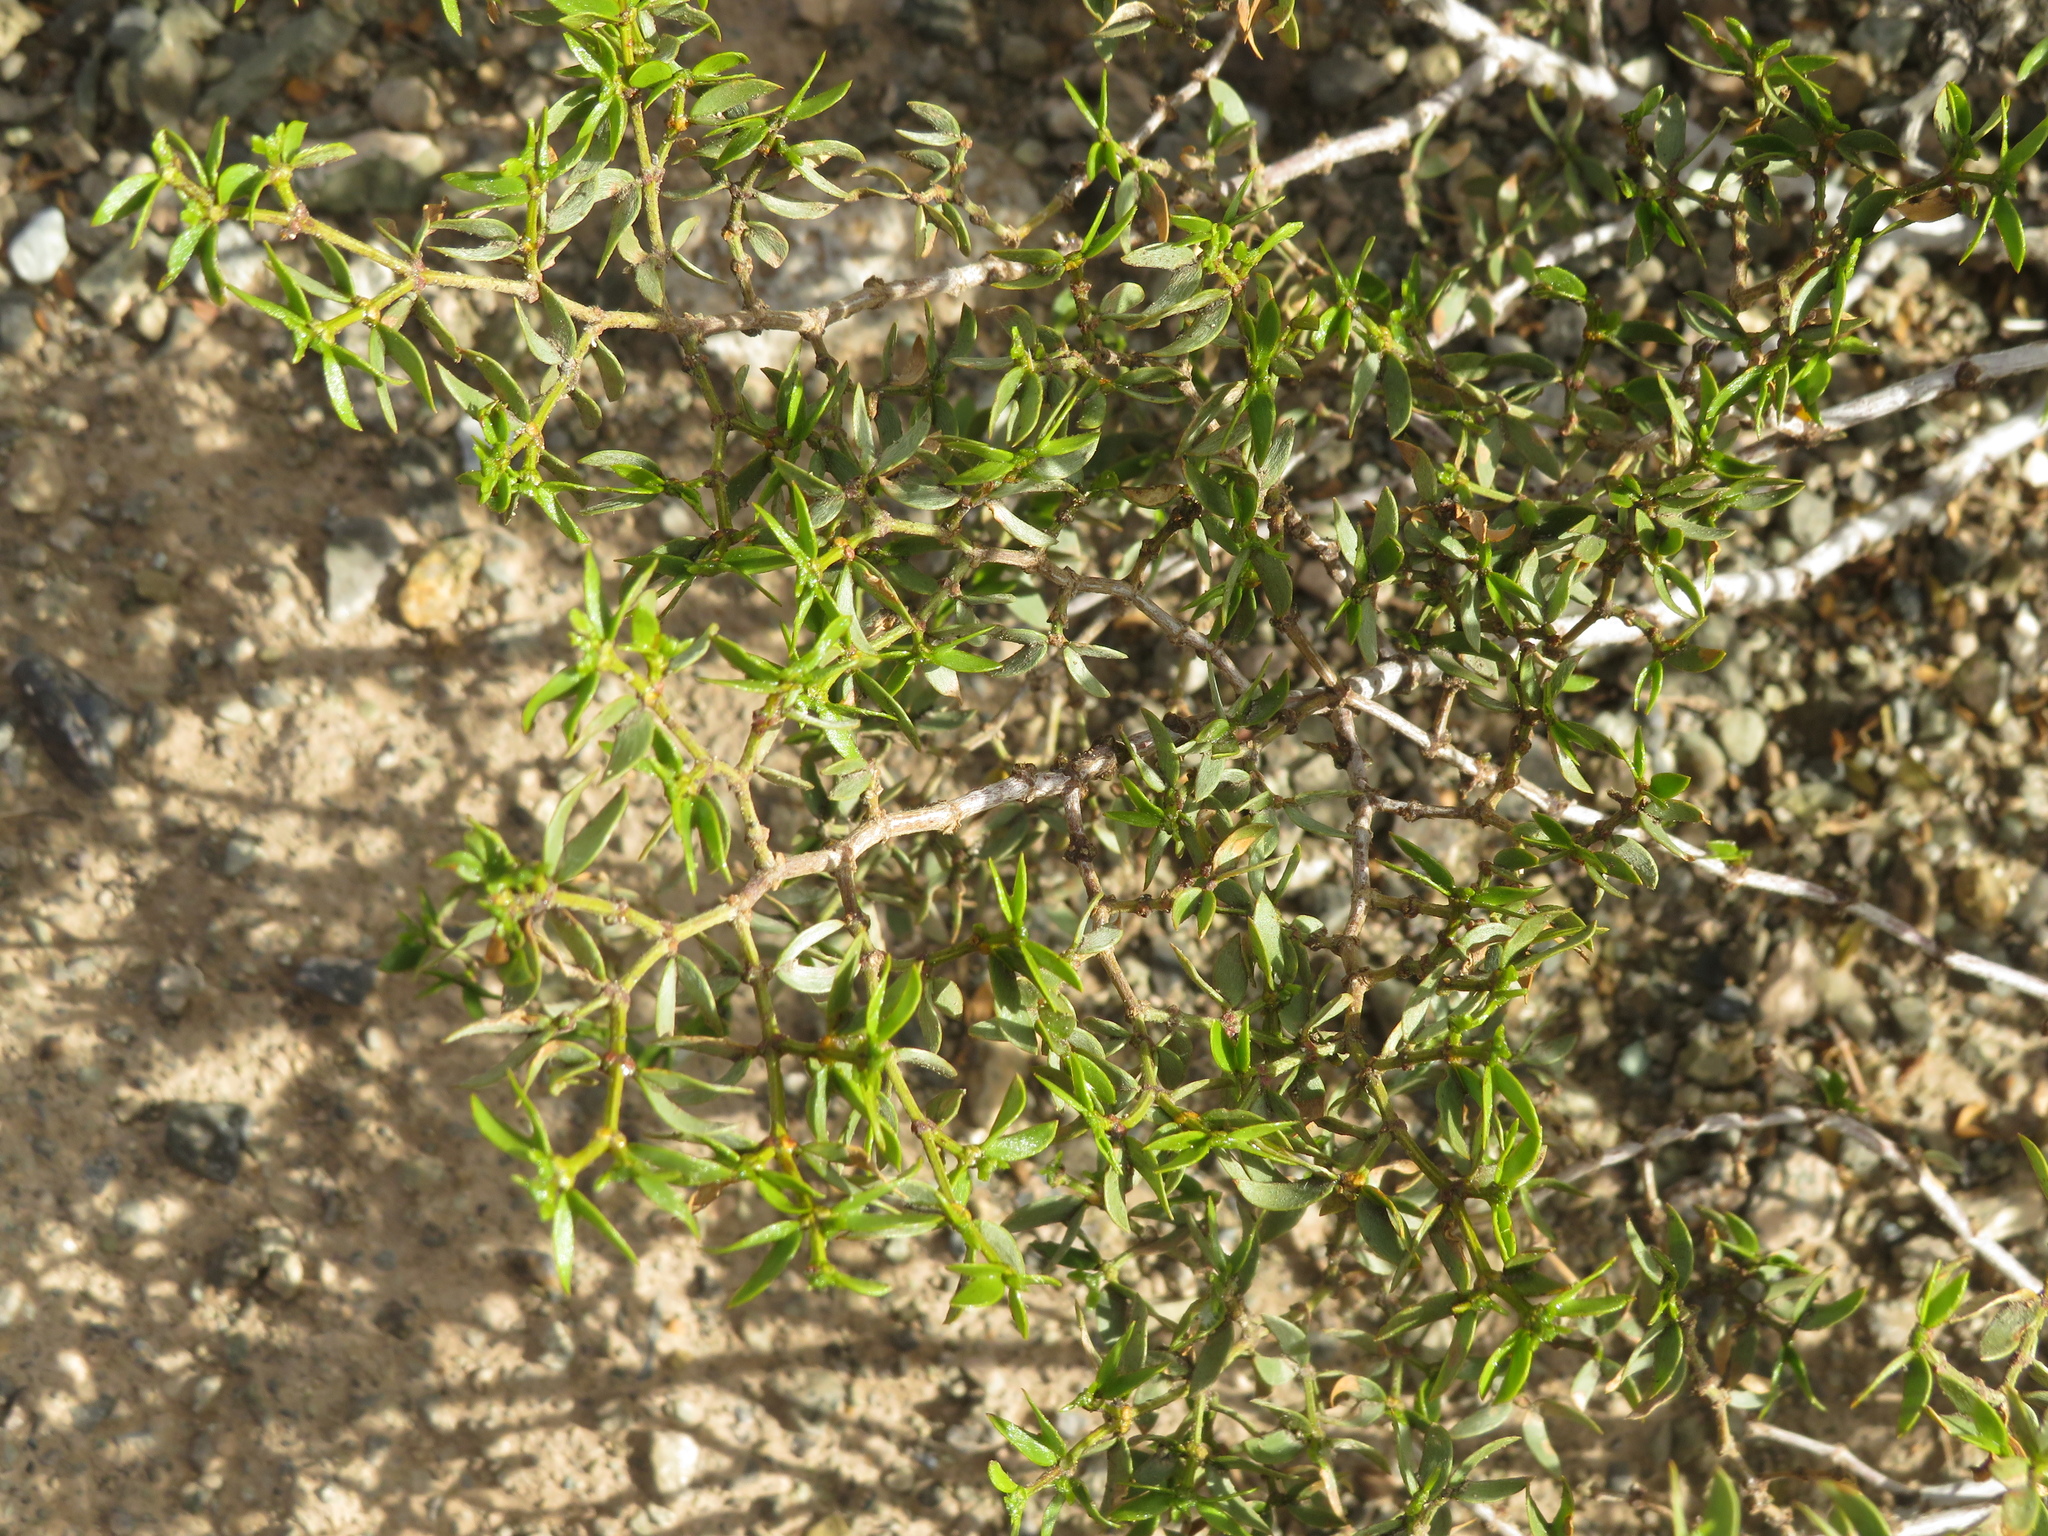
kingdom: Plantae
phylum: Tracheophyta
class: Magnoliopsida
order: Zygophyllales
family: Zygophyllaceae
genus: Larrea
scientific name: Larrea divaricata
